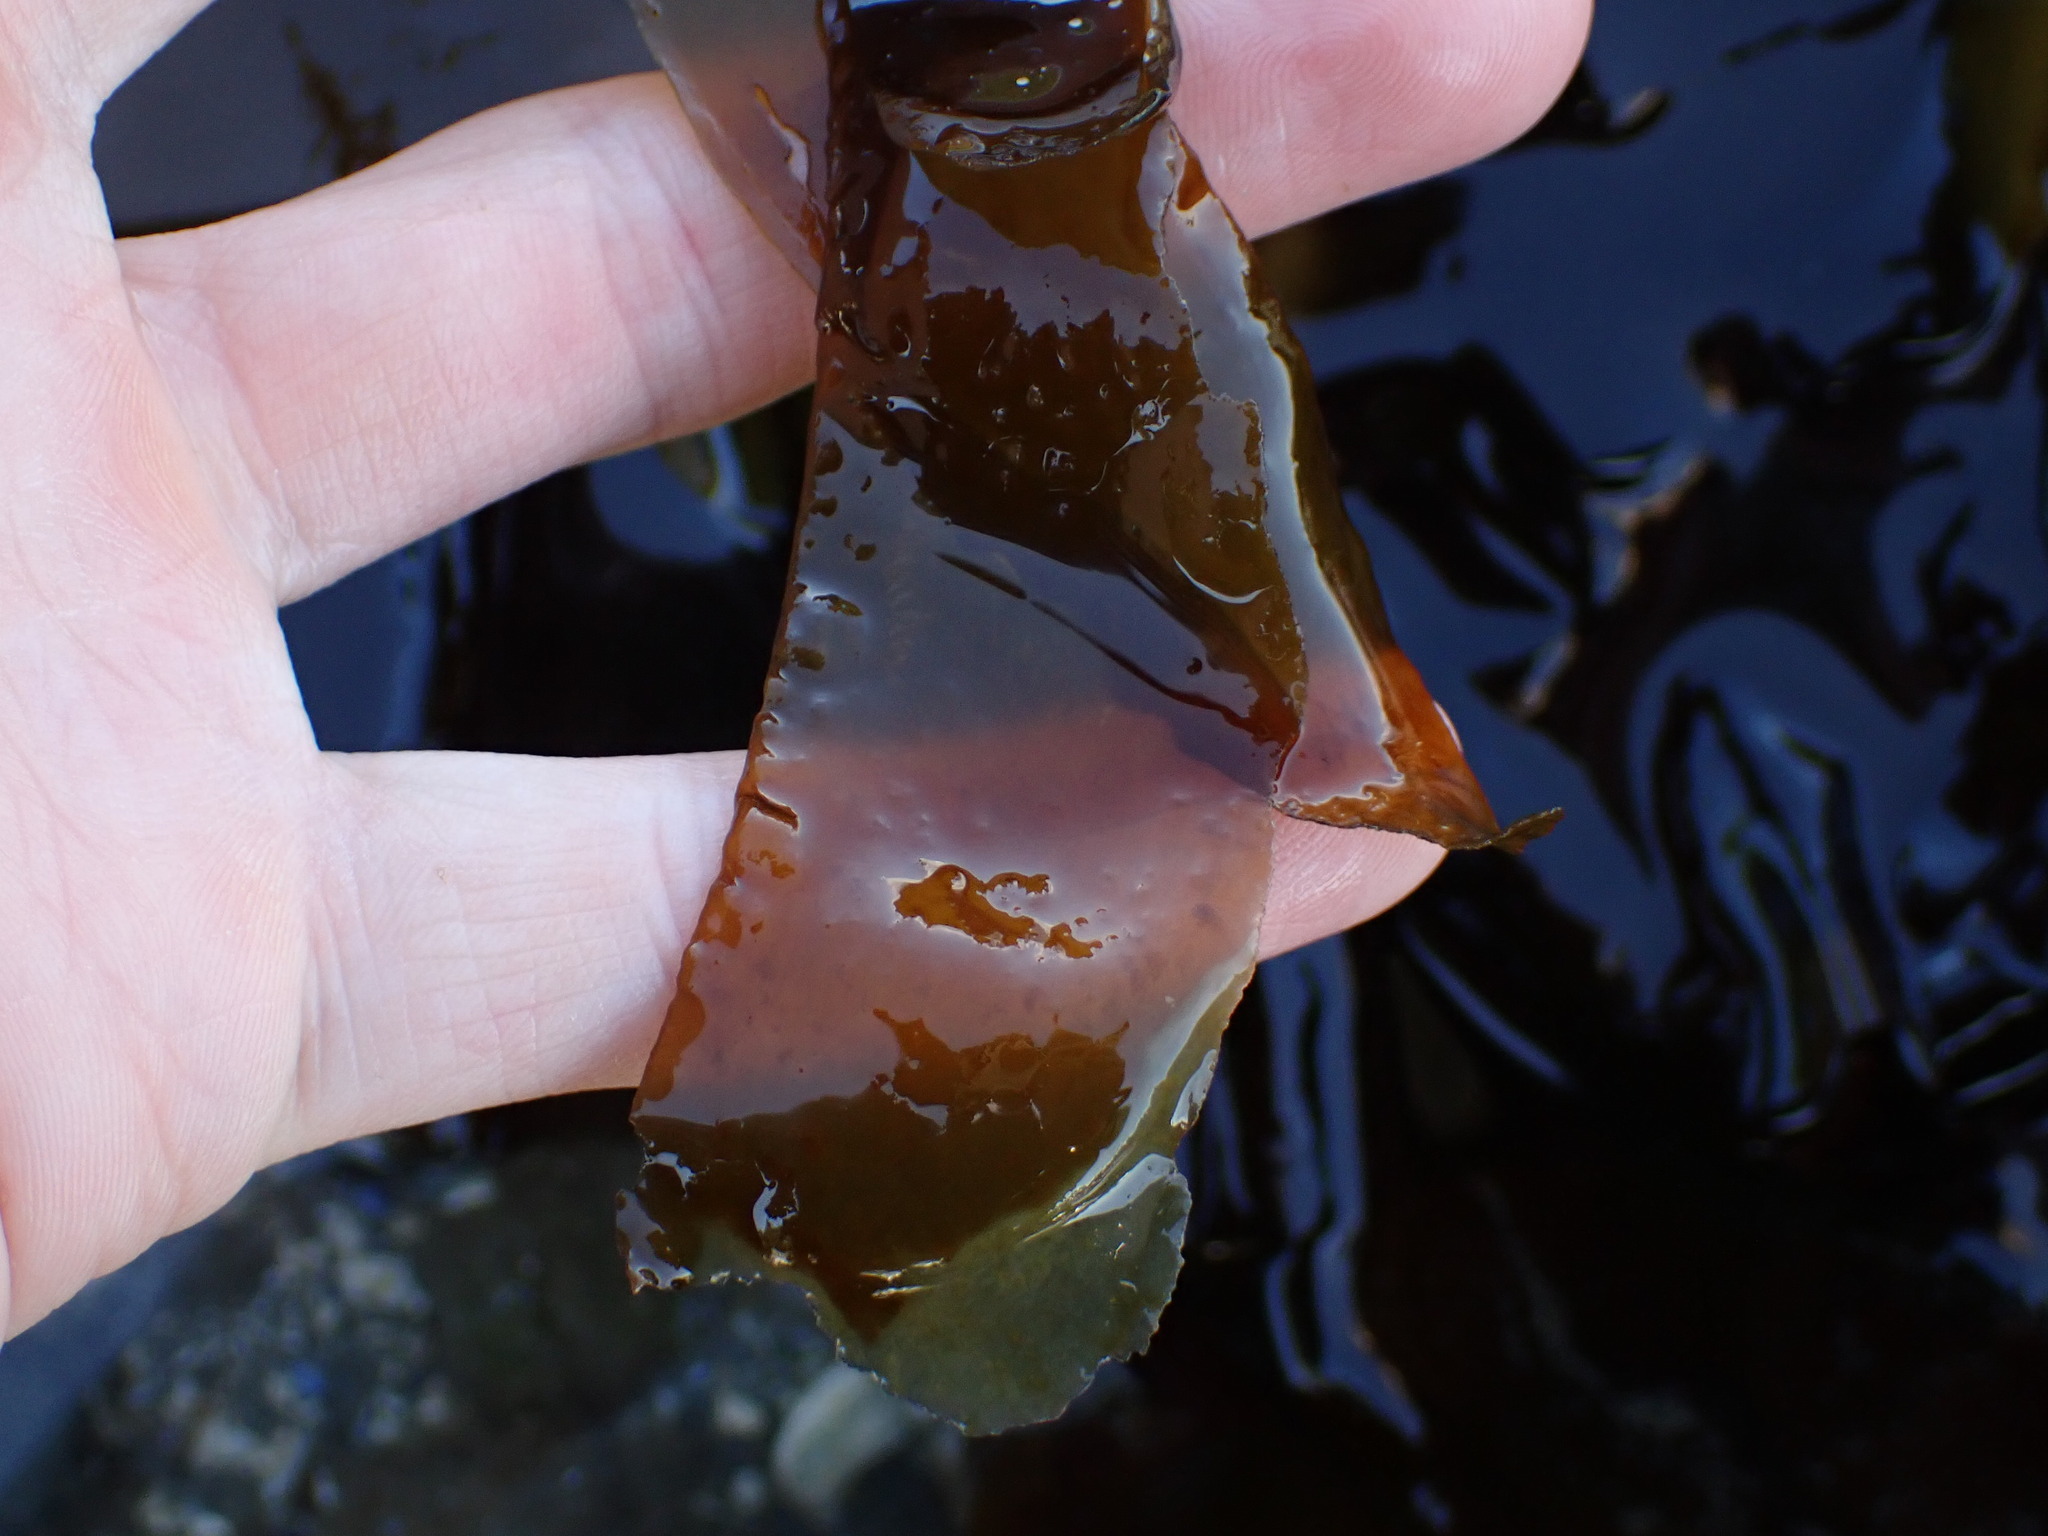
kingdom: Chromista
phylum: Ochrophyta
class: Phaeophyceae
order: Laminariales
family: Laminariaceae
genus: Nereocystis
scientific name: Nereocystis luetkeana
